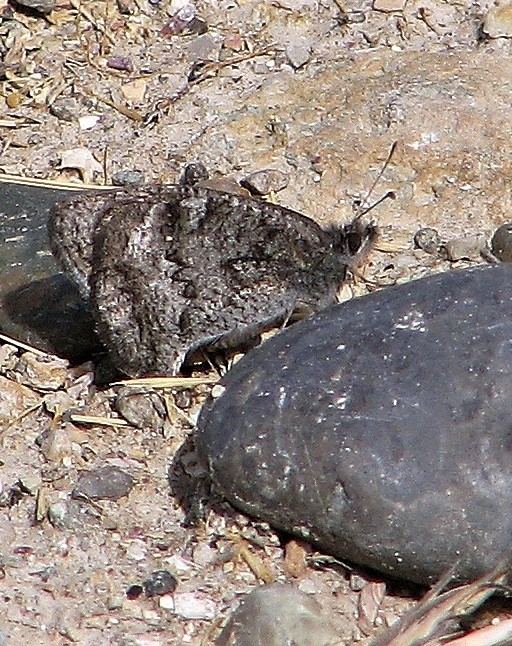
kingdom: Animalia
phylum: Arthropoda
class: Insecta
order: Lepidoptera
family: Nymphalidae
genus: Pampasatyrus
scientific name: Pampasatyrus yacantoensis
